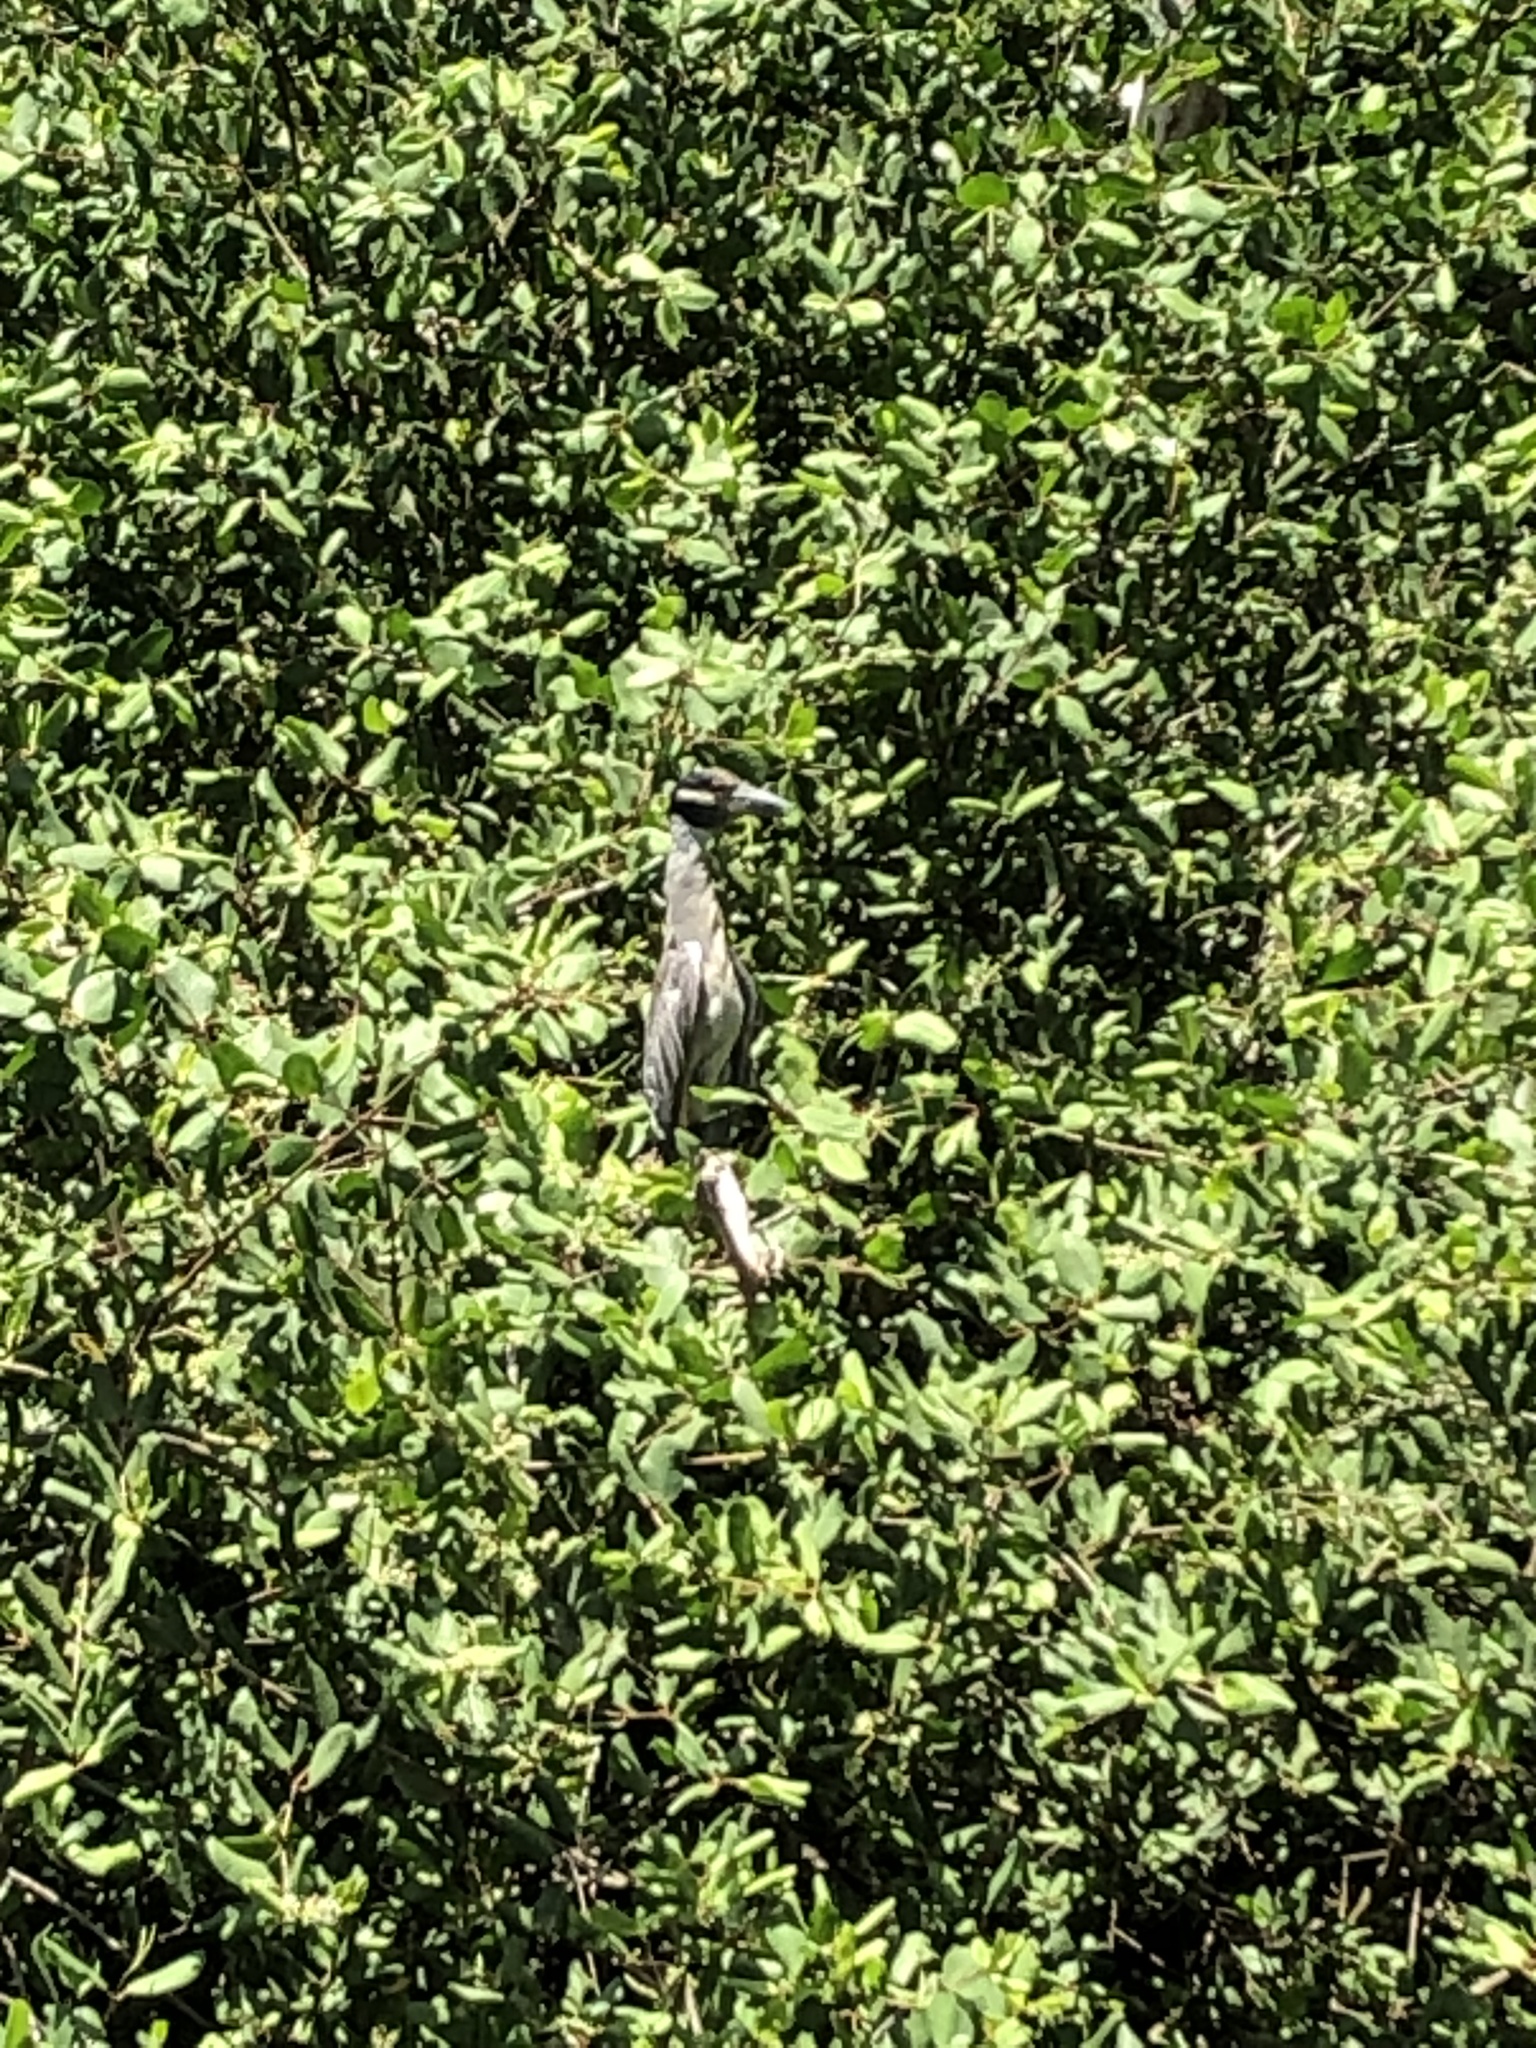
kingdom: Animalia
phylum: Chordata
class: Aves
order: Pelecaniformes
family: Ardeidae
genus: Nyctanassa
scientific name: Nyctanassa violacea
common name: Yellow-crowned night heron
